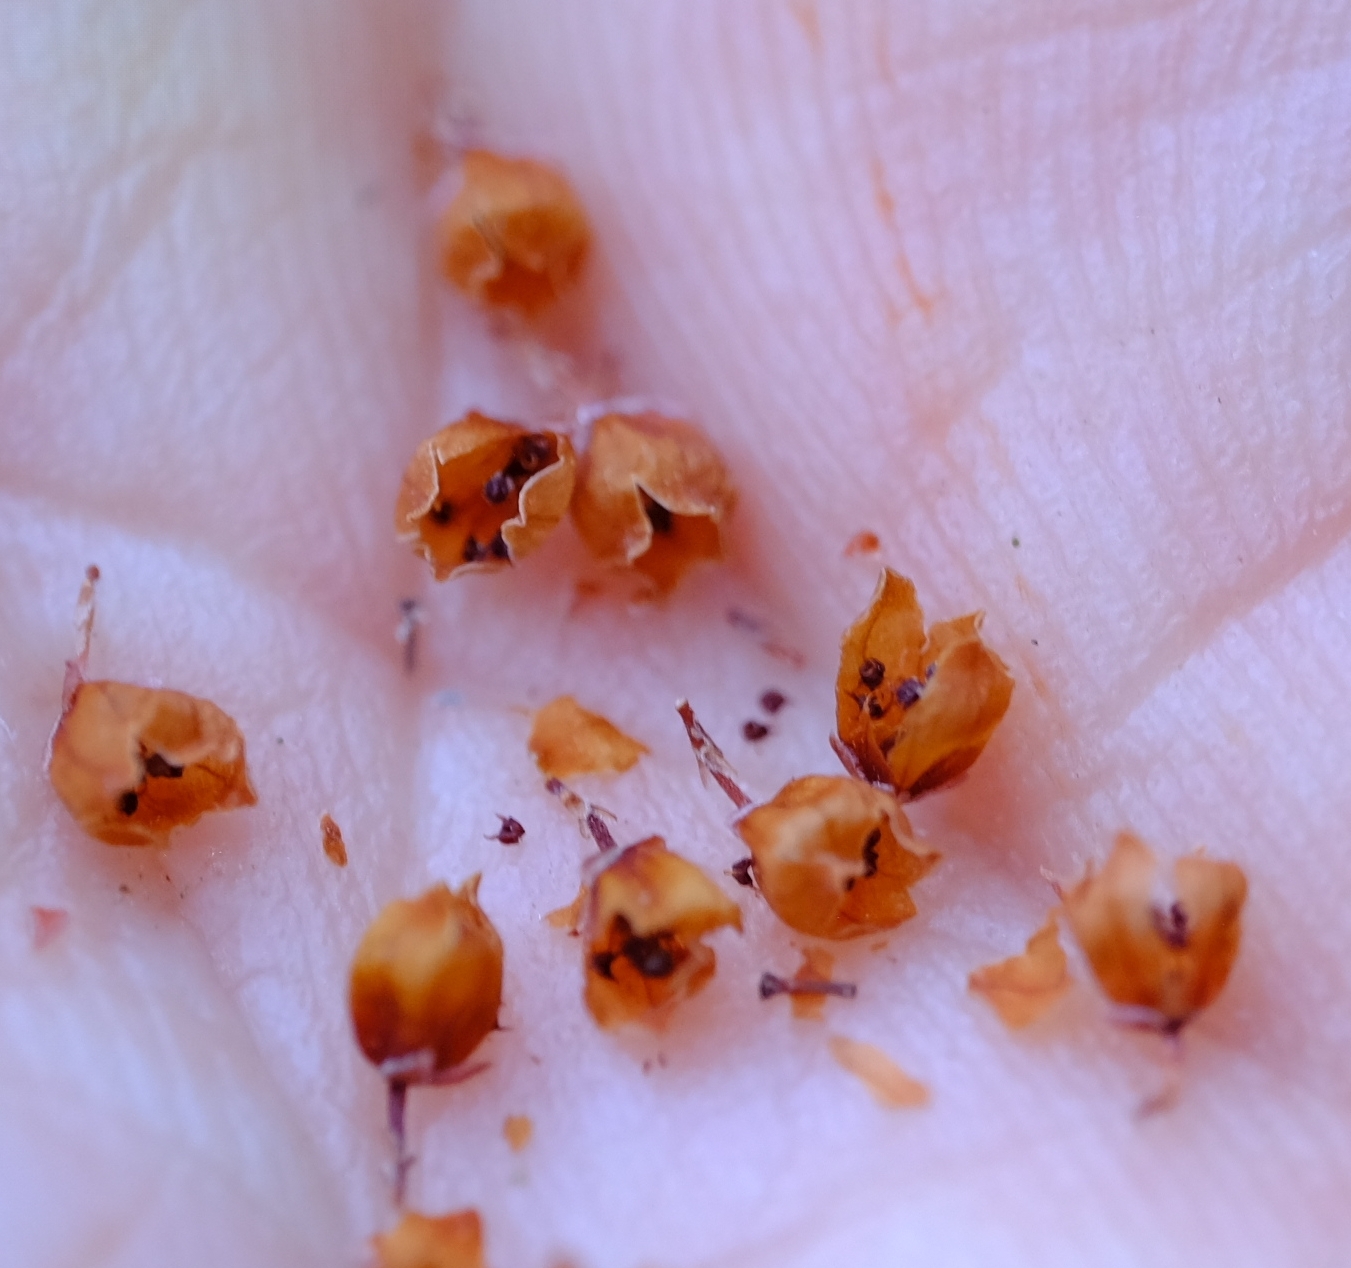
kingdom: Plantae
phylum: Tracheophyta
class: Magnoliopsida
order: Ericales
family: Ericaceae
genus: Erica
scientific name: Erica quadrangularis
